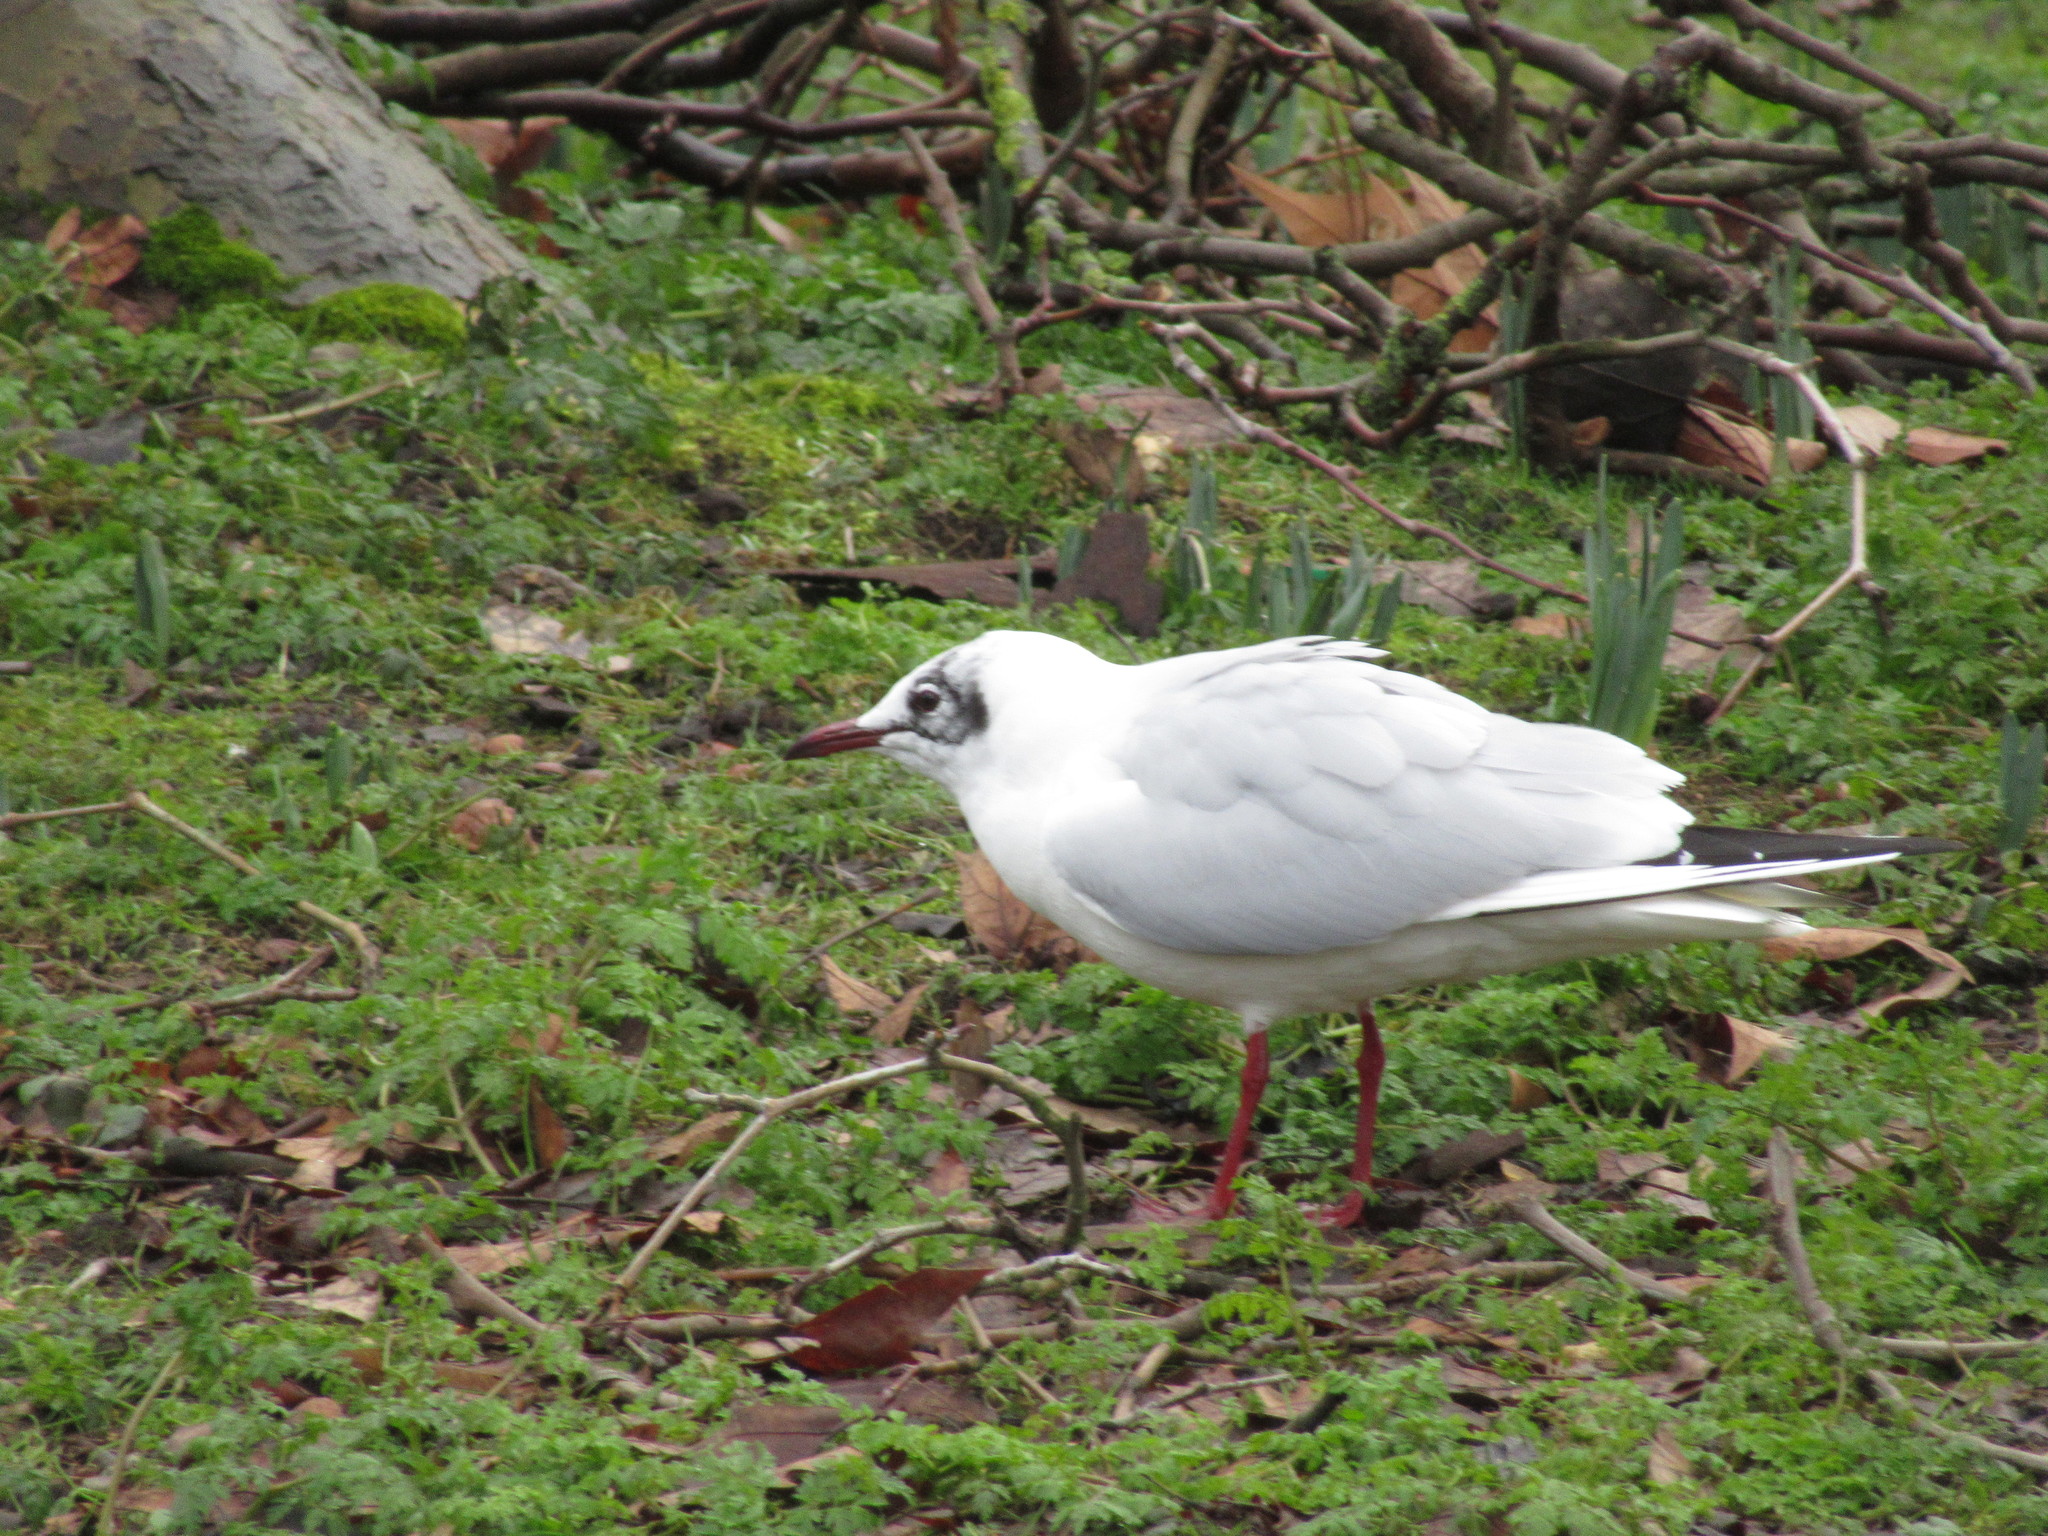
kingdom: Animalia
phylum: Chordata
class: Aves
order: Charadriiformes
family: Laridae
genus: Chroicocephalus
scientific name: Chroicocephalus ridibundus
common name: Black-headed gull
